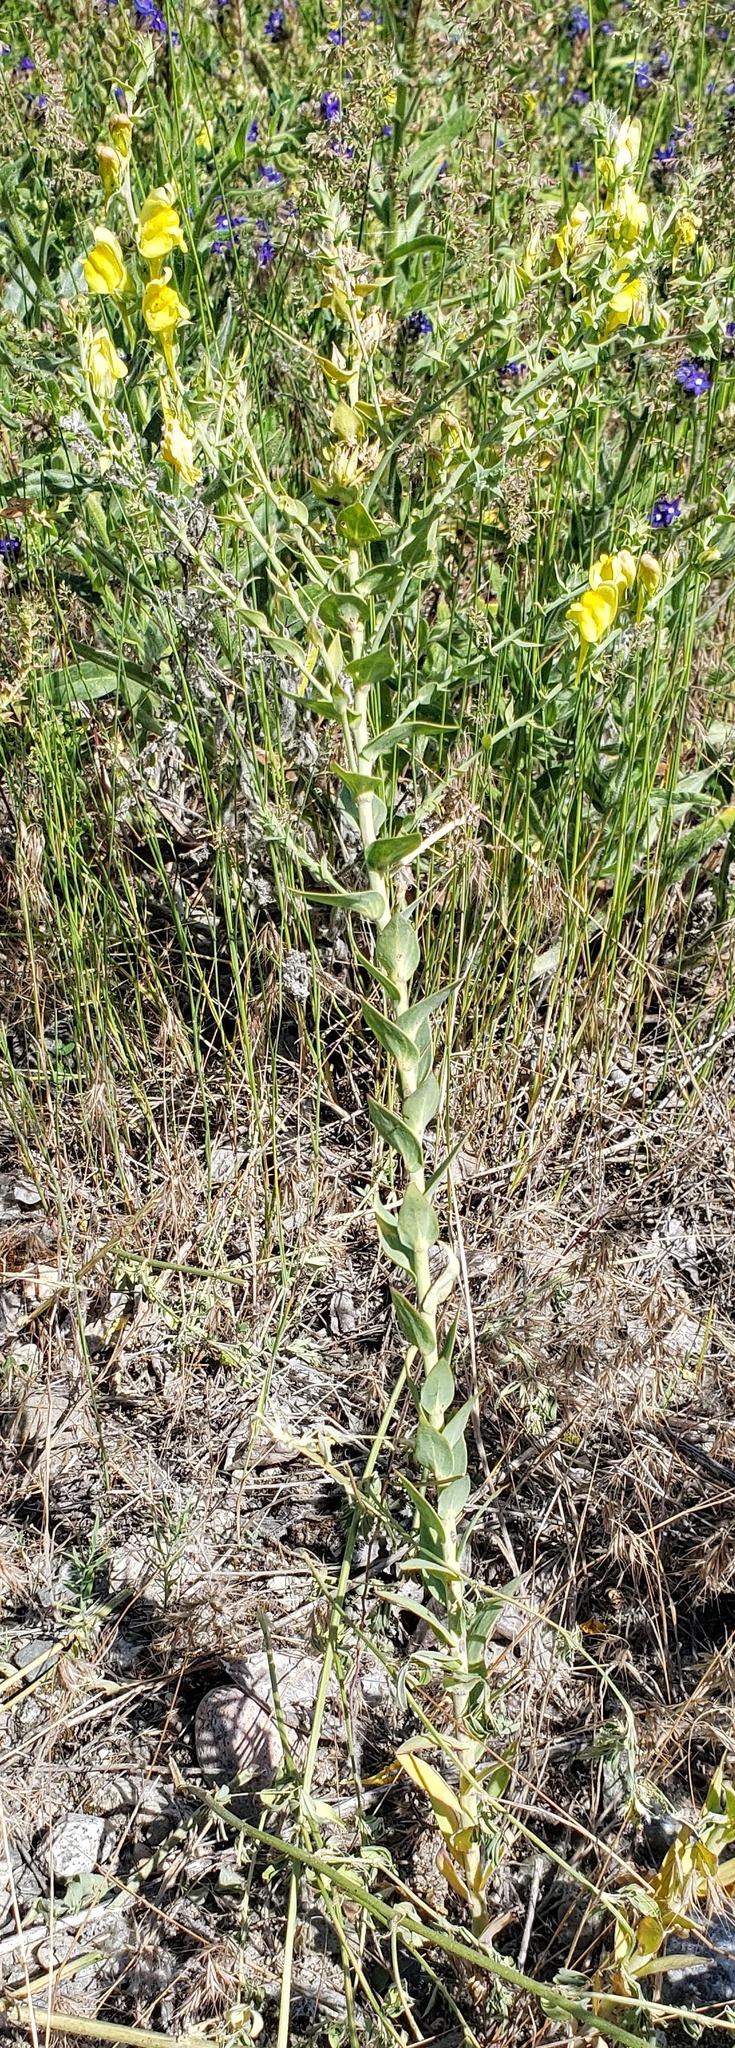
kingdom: Plantae
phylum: Tracheophyta
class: Magnoliopsida
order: Lamiales
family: Plantaginaceae
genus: Linaria
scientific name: Linaria dalmatica
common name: Dalmatian toadflax
